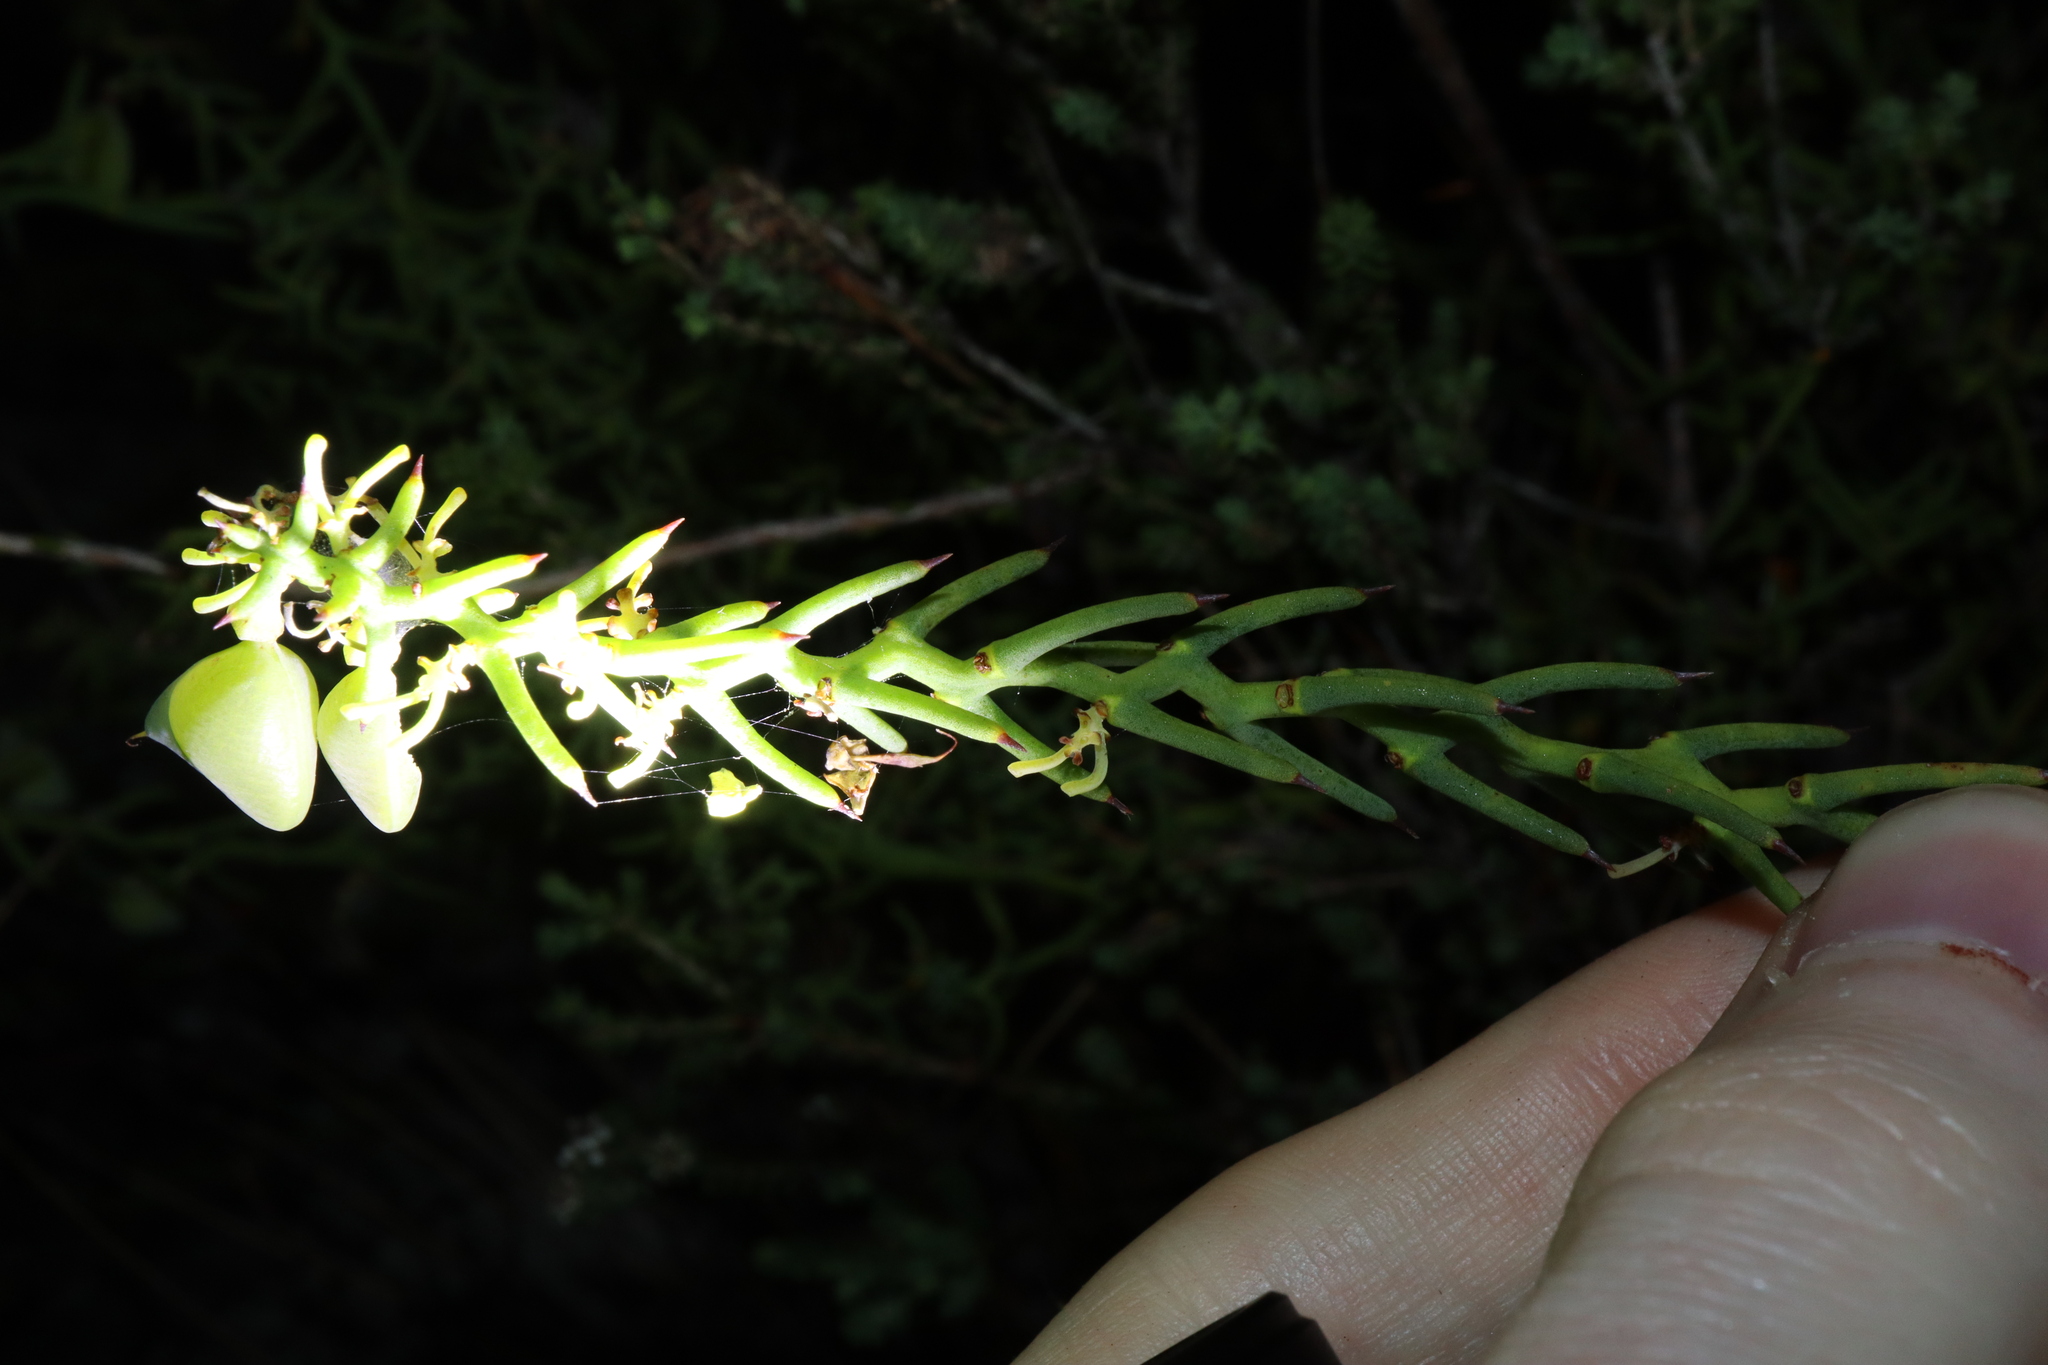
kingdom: Plantae
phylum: Tracheophyta
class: Magnoliopsida
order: Fabales
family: Fabaceae
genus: Daviesia
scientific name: Daviesia incrassata
